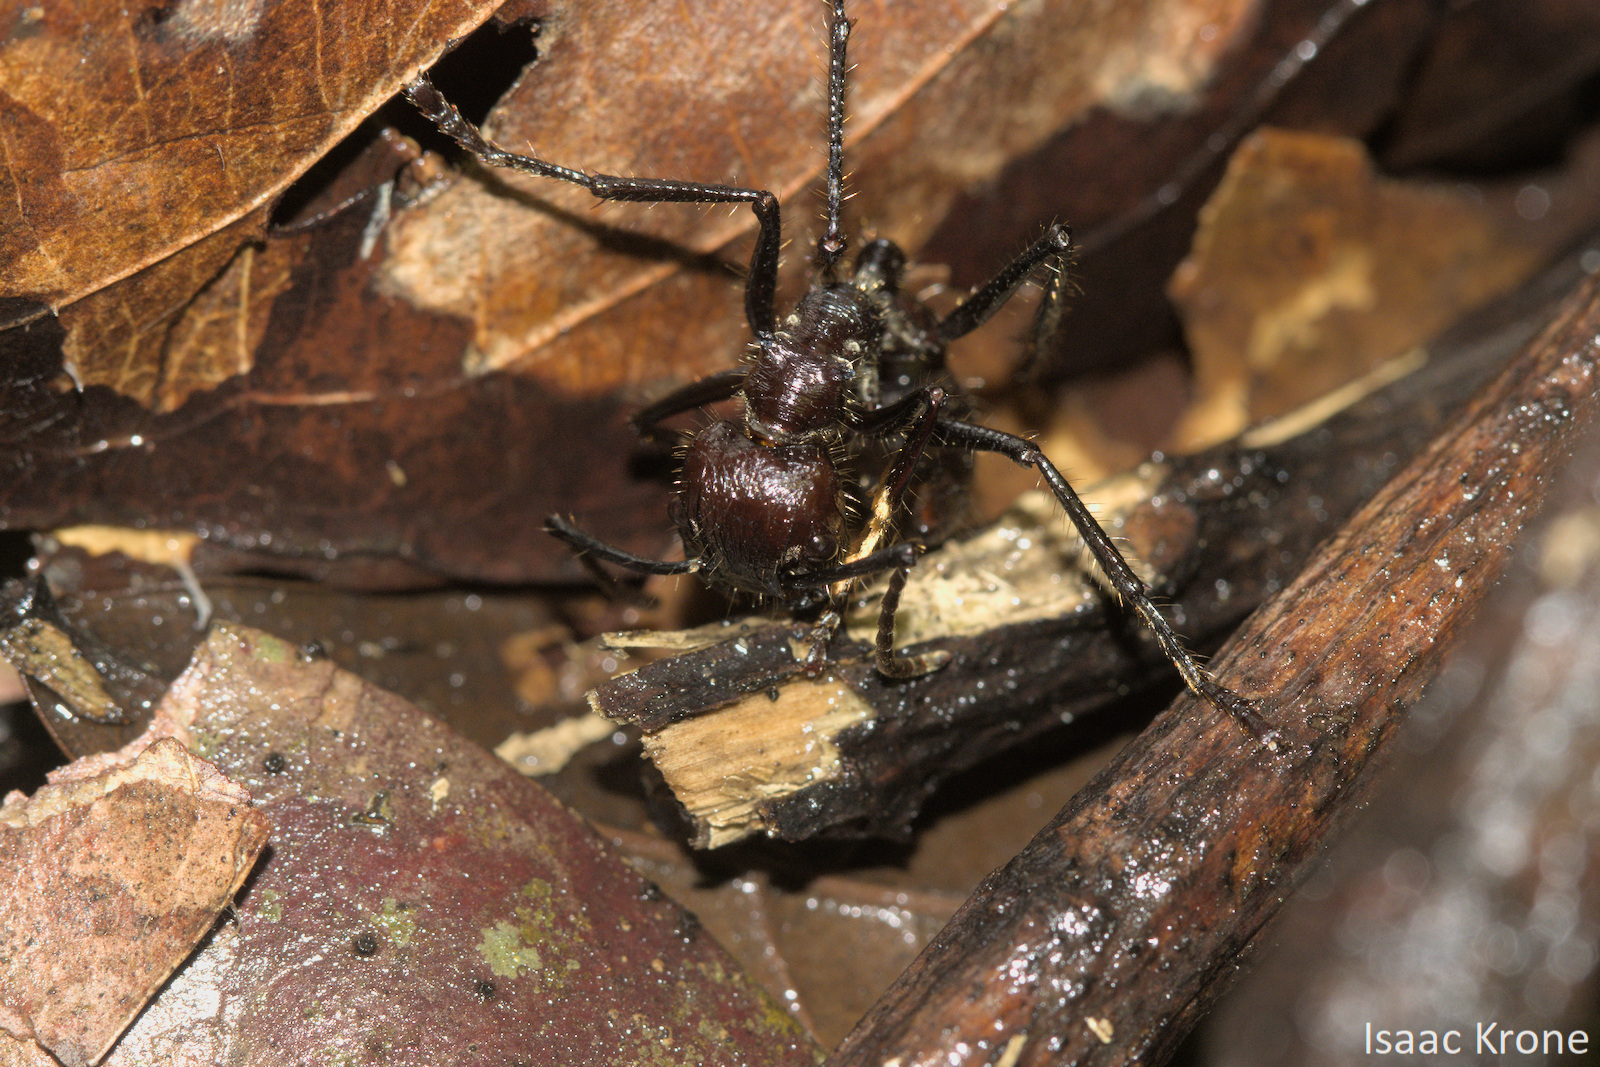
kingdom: Animalia
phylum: Arthropoda
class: Insecta
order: Hymenoptera
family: Formicidae
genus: Paraponera
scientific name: Paraponera clavata
